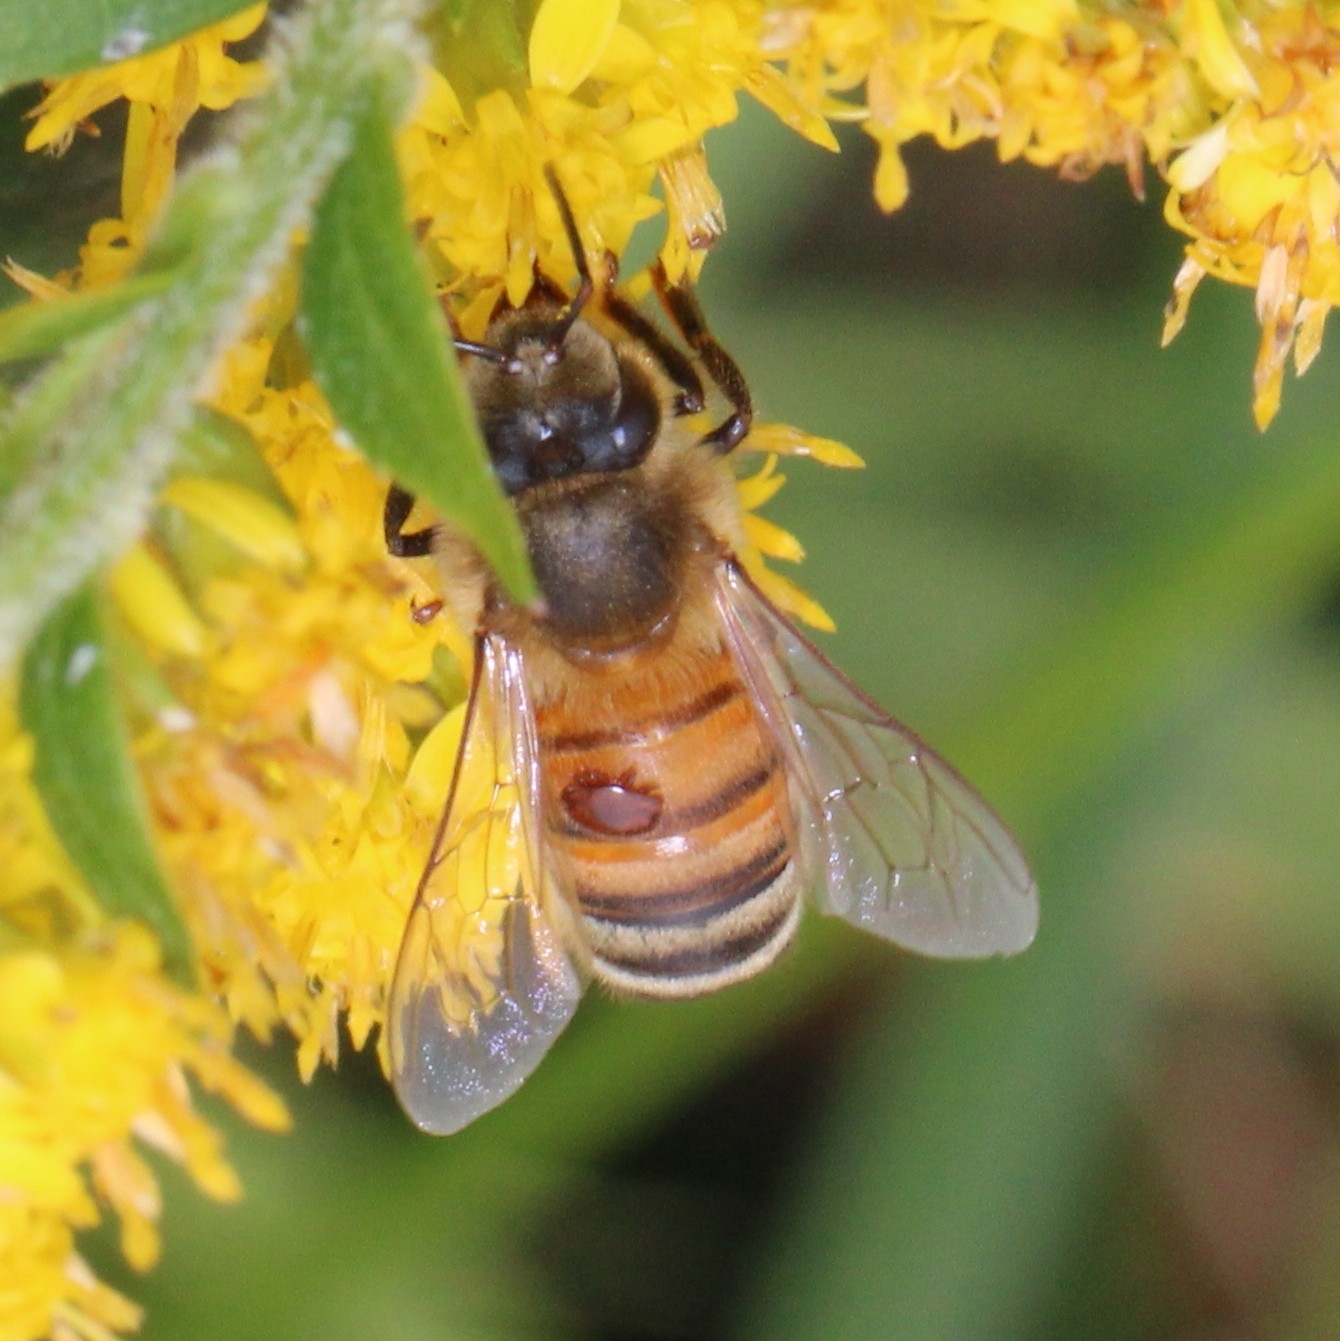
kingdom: Animalia
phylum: Arthropoda
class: Arachnida
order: Mesostigmata
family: Varroidae
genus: Varroa
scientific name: Varroa destructor
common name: Honey bee mite
